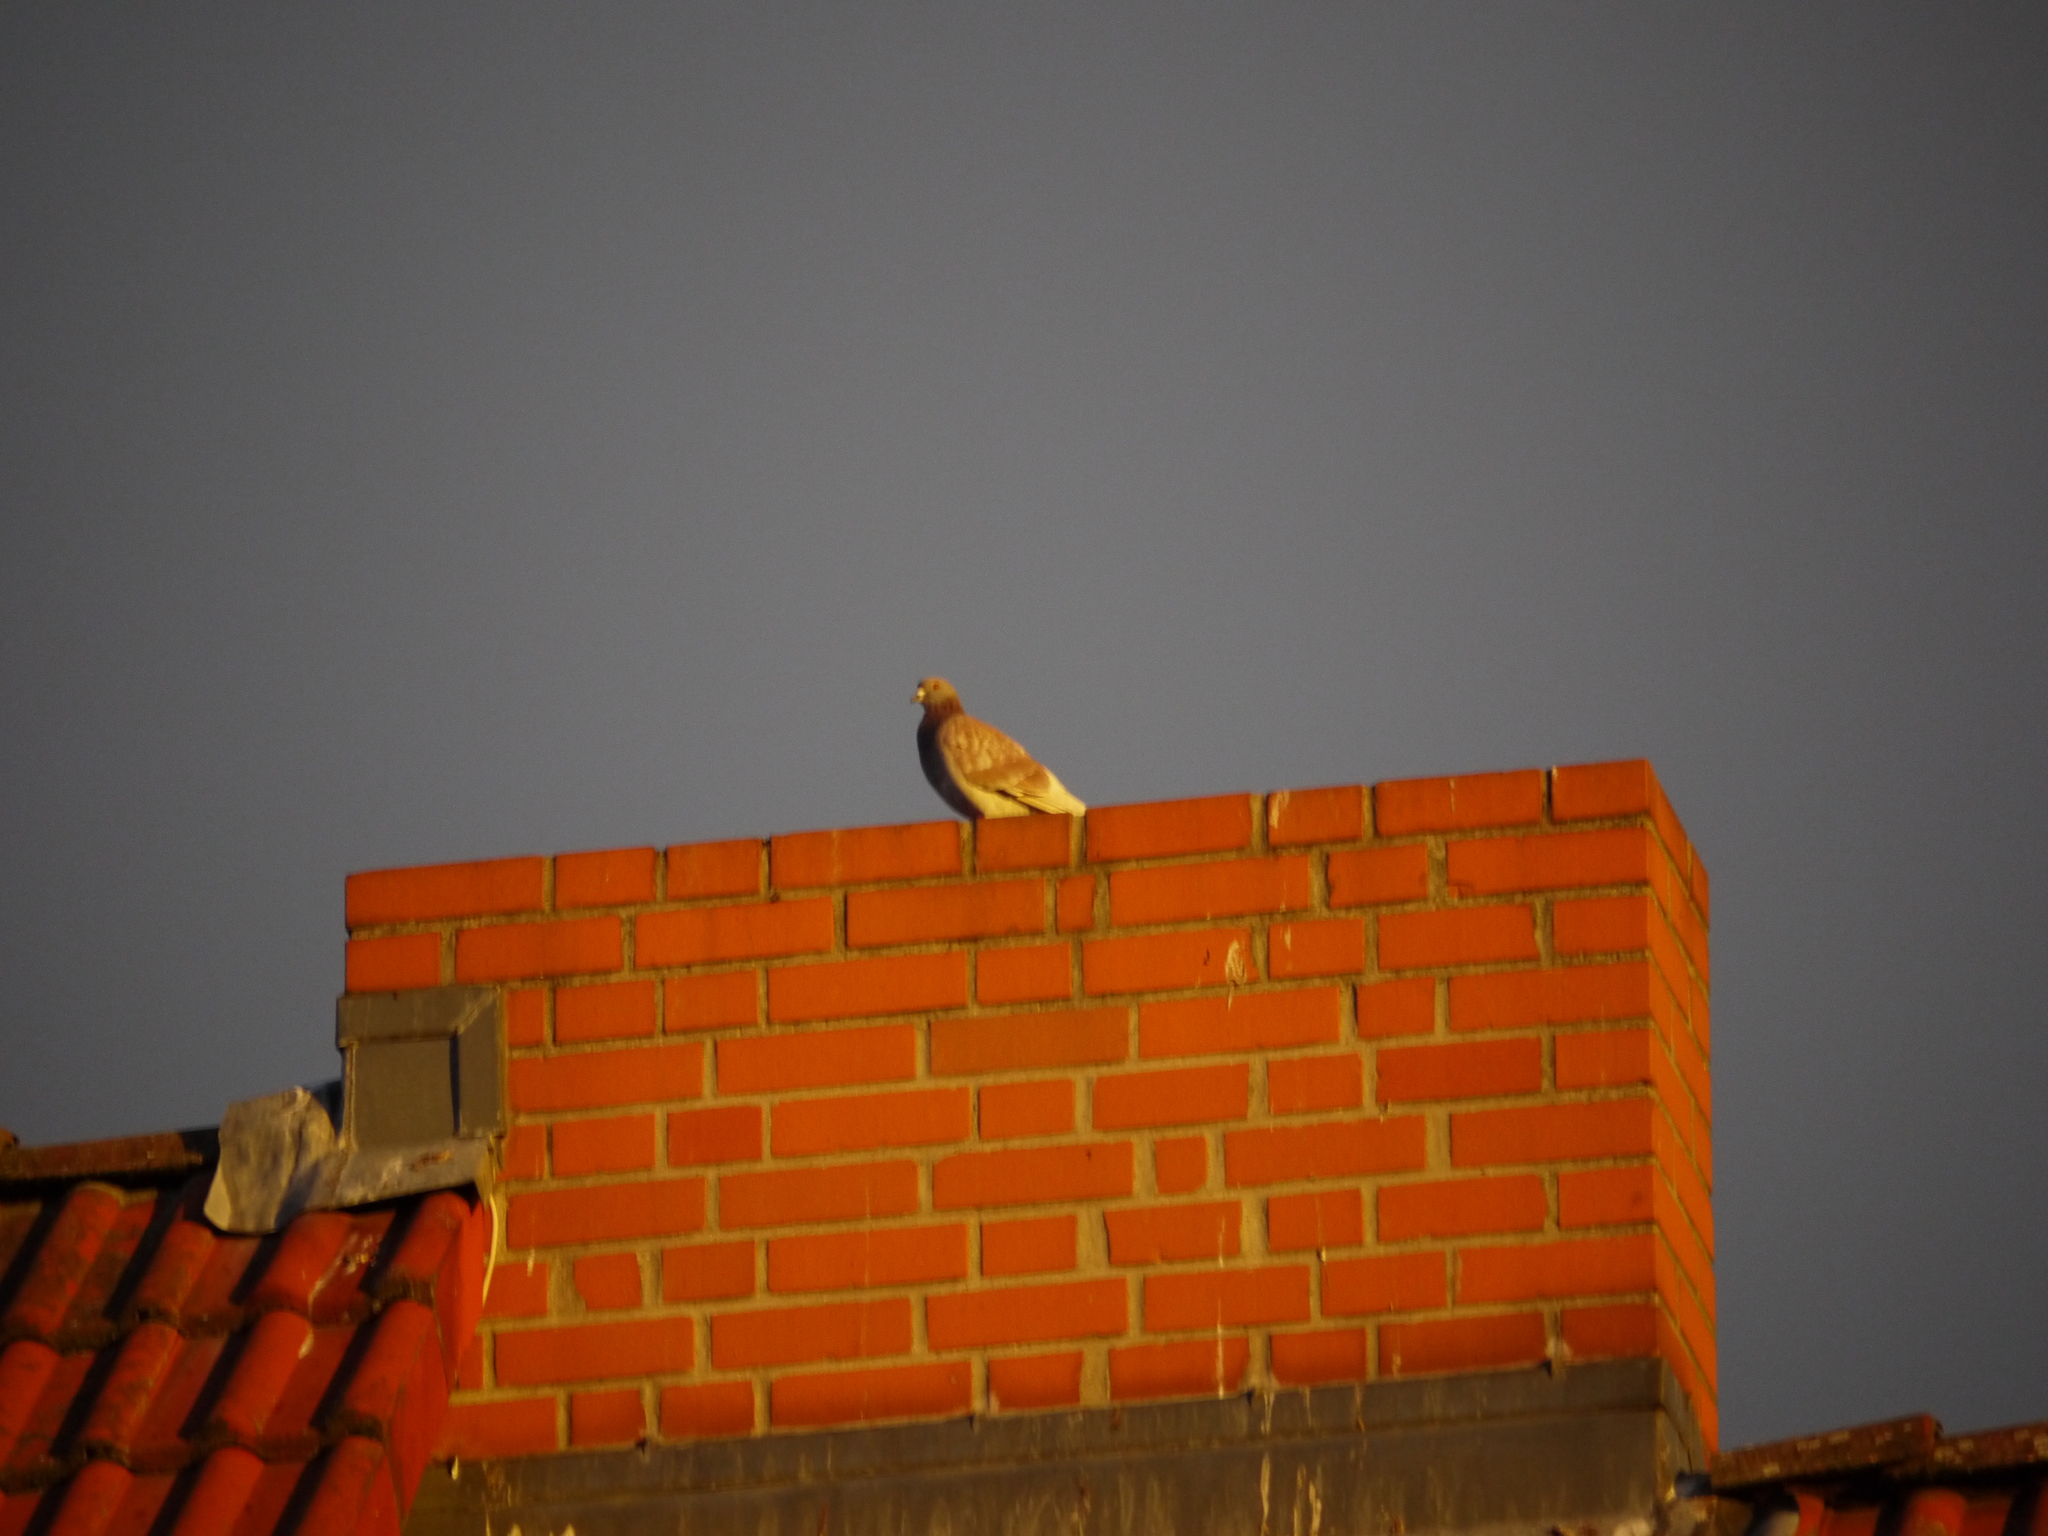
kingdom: Animalia
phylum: Chordata
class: Aves
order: Columbiformes
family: Columbidae
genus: Columba
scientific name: Columba livia
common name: Rock pigeon
